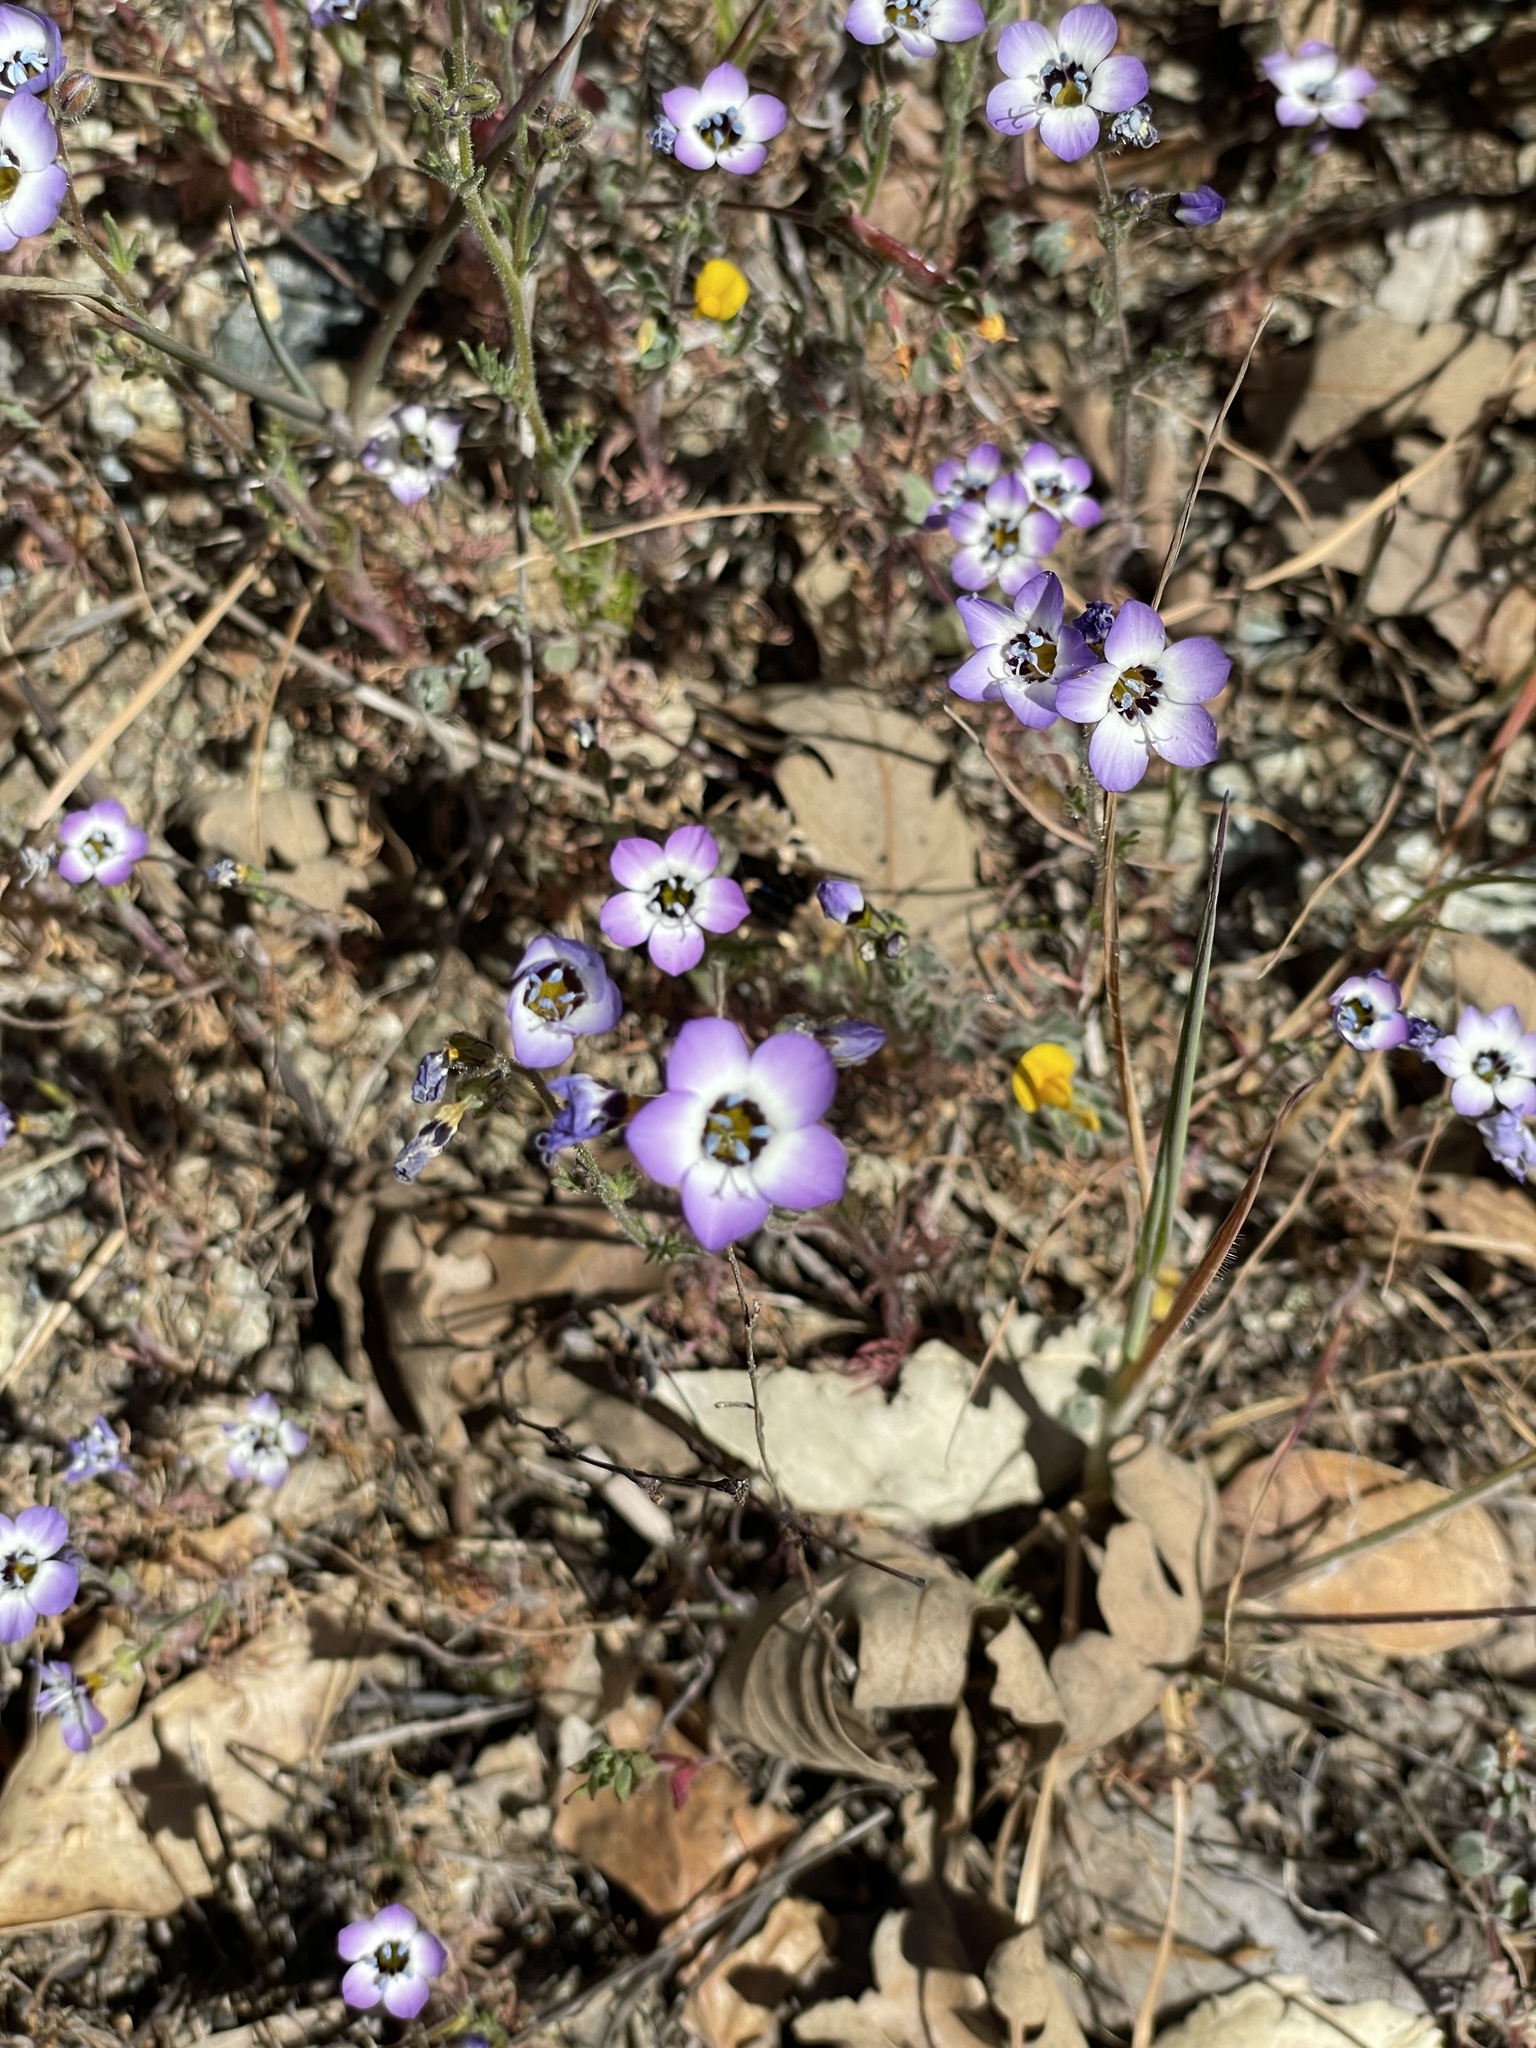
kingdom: Plantae
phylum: Tracheophyta
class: Magnoliopsida
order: Ericales
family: Polemoniaceae
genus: Gilia
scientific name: Gilia tricolor
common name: Bird's-eyes
